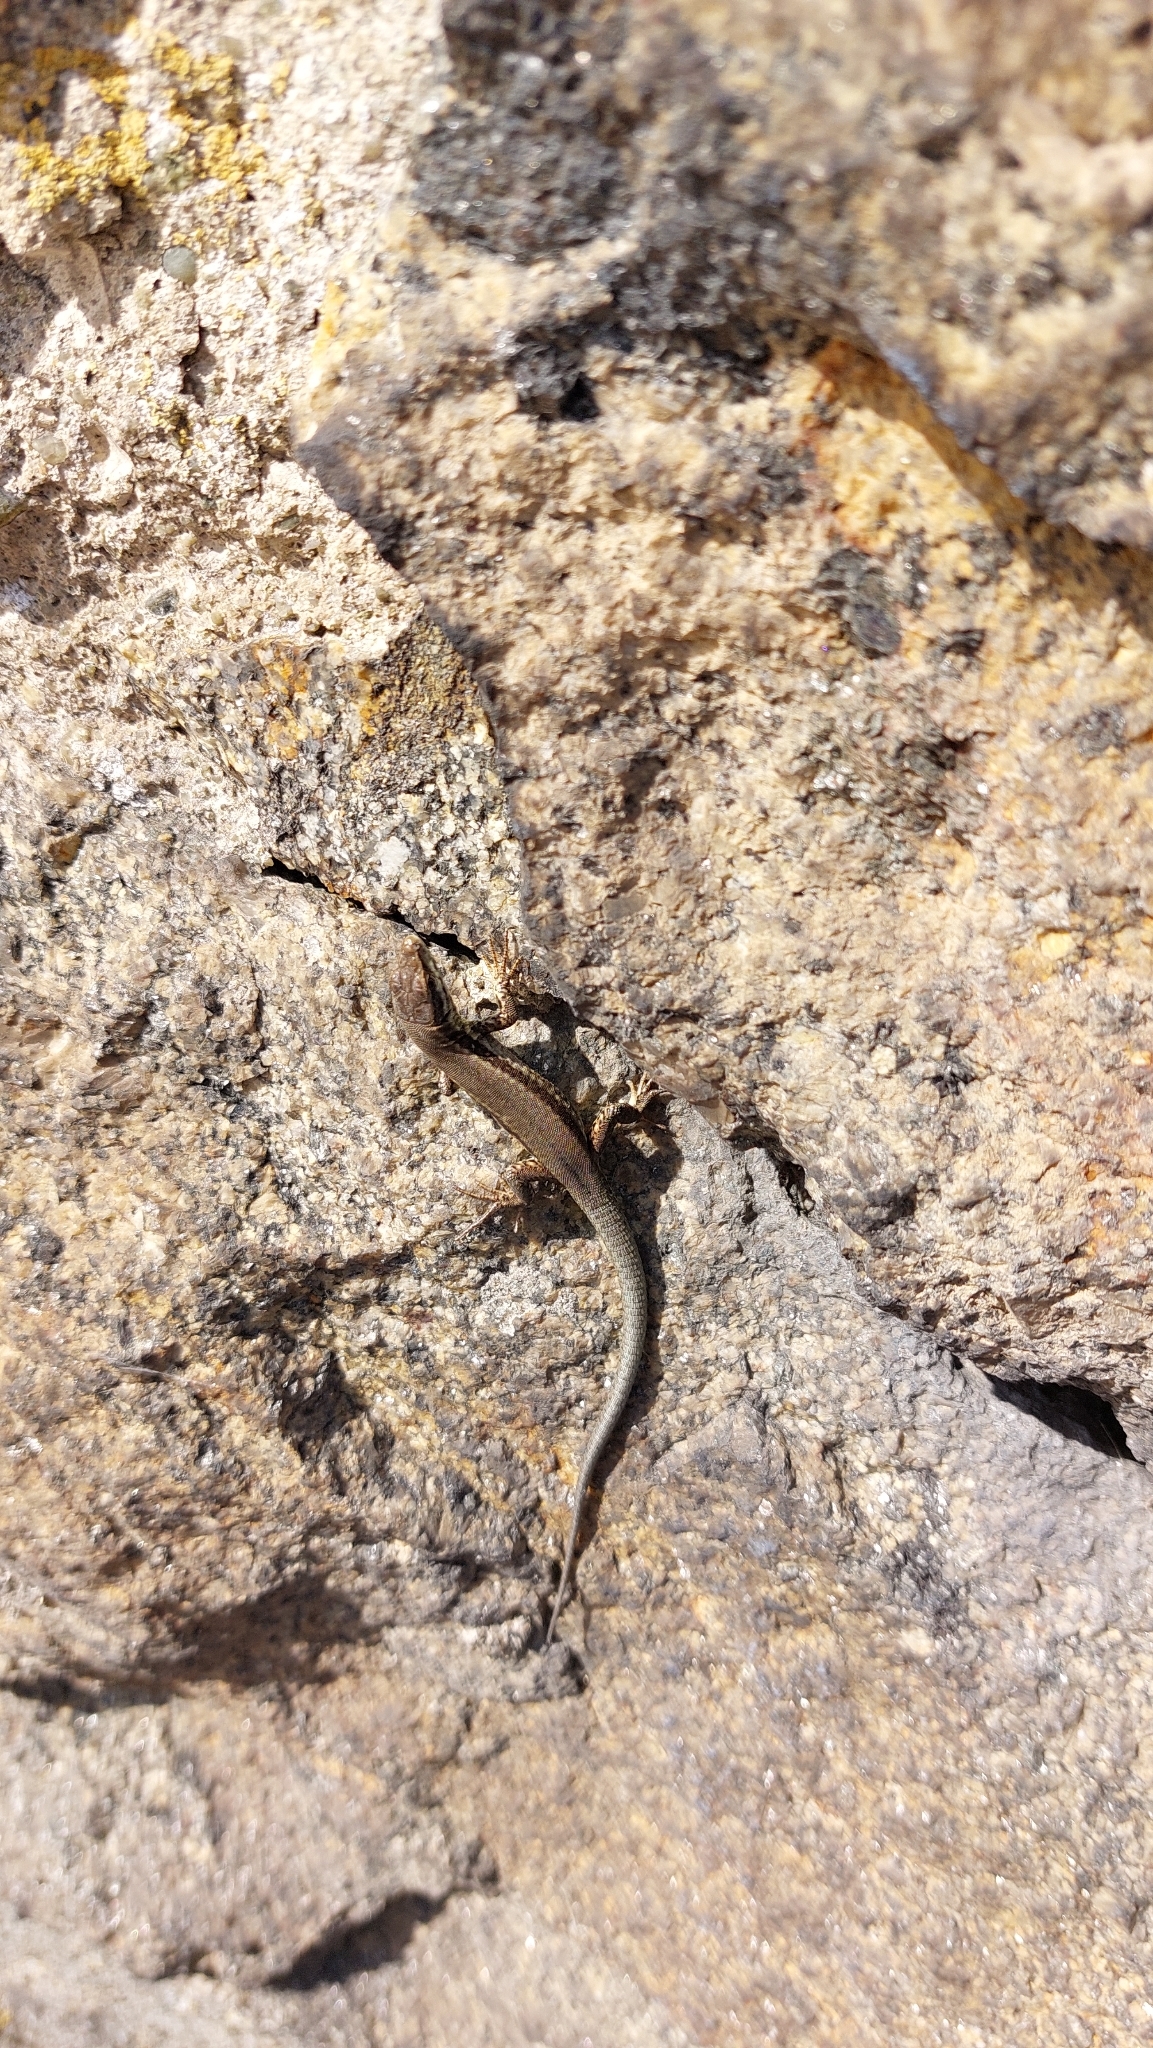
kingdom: Animalia
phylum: Chordata
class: Squamata
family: Lacertidae
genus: Podarcis
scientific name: Podarcis muralis
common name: Common wall lizard
